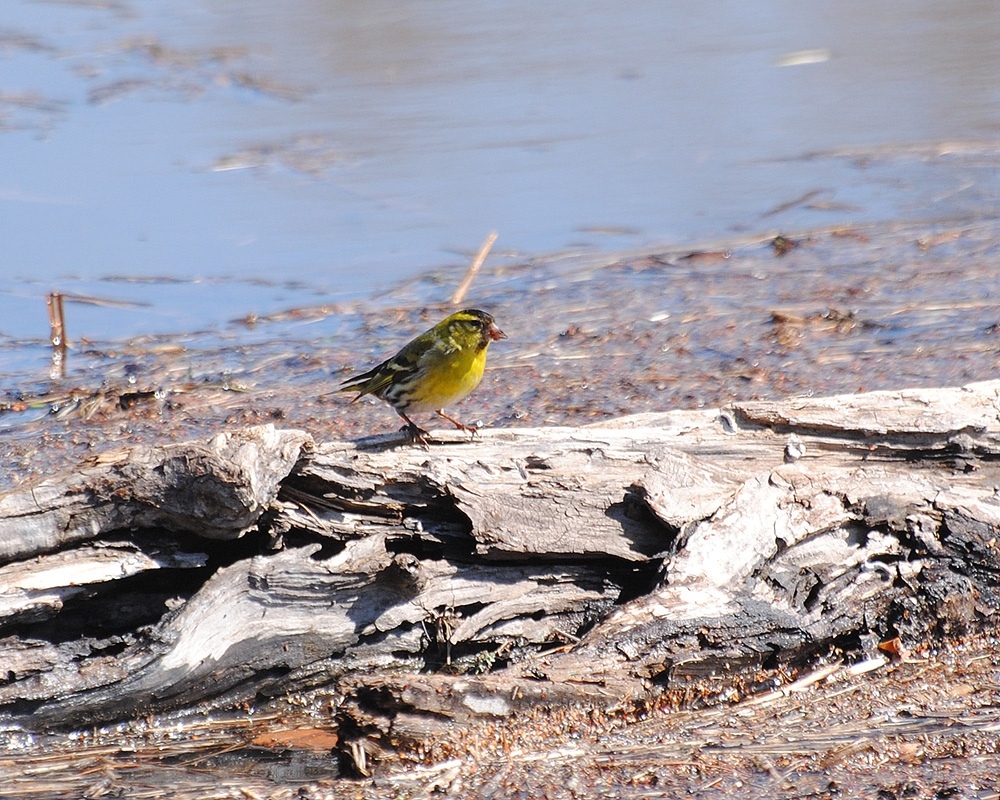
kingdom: Animalia
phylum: Chordata
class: Aves
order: Passeriformes
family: Fringillidae
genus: Spinus
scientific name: Spinus spinus
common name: Eurasian siskin
